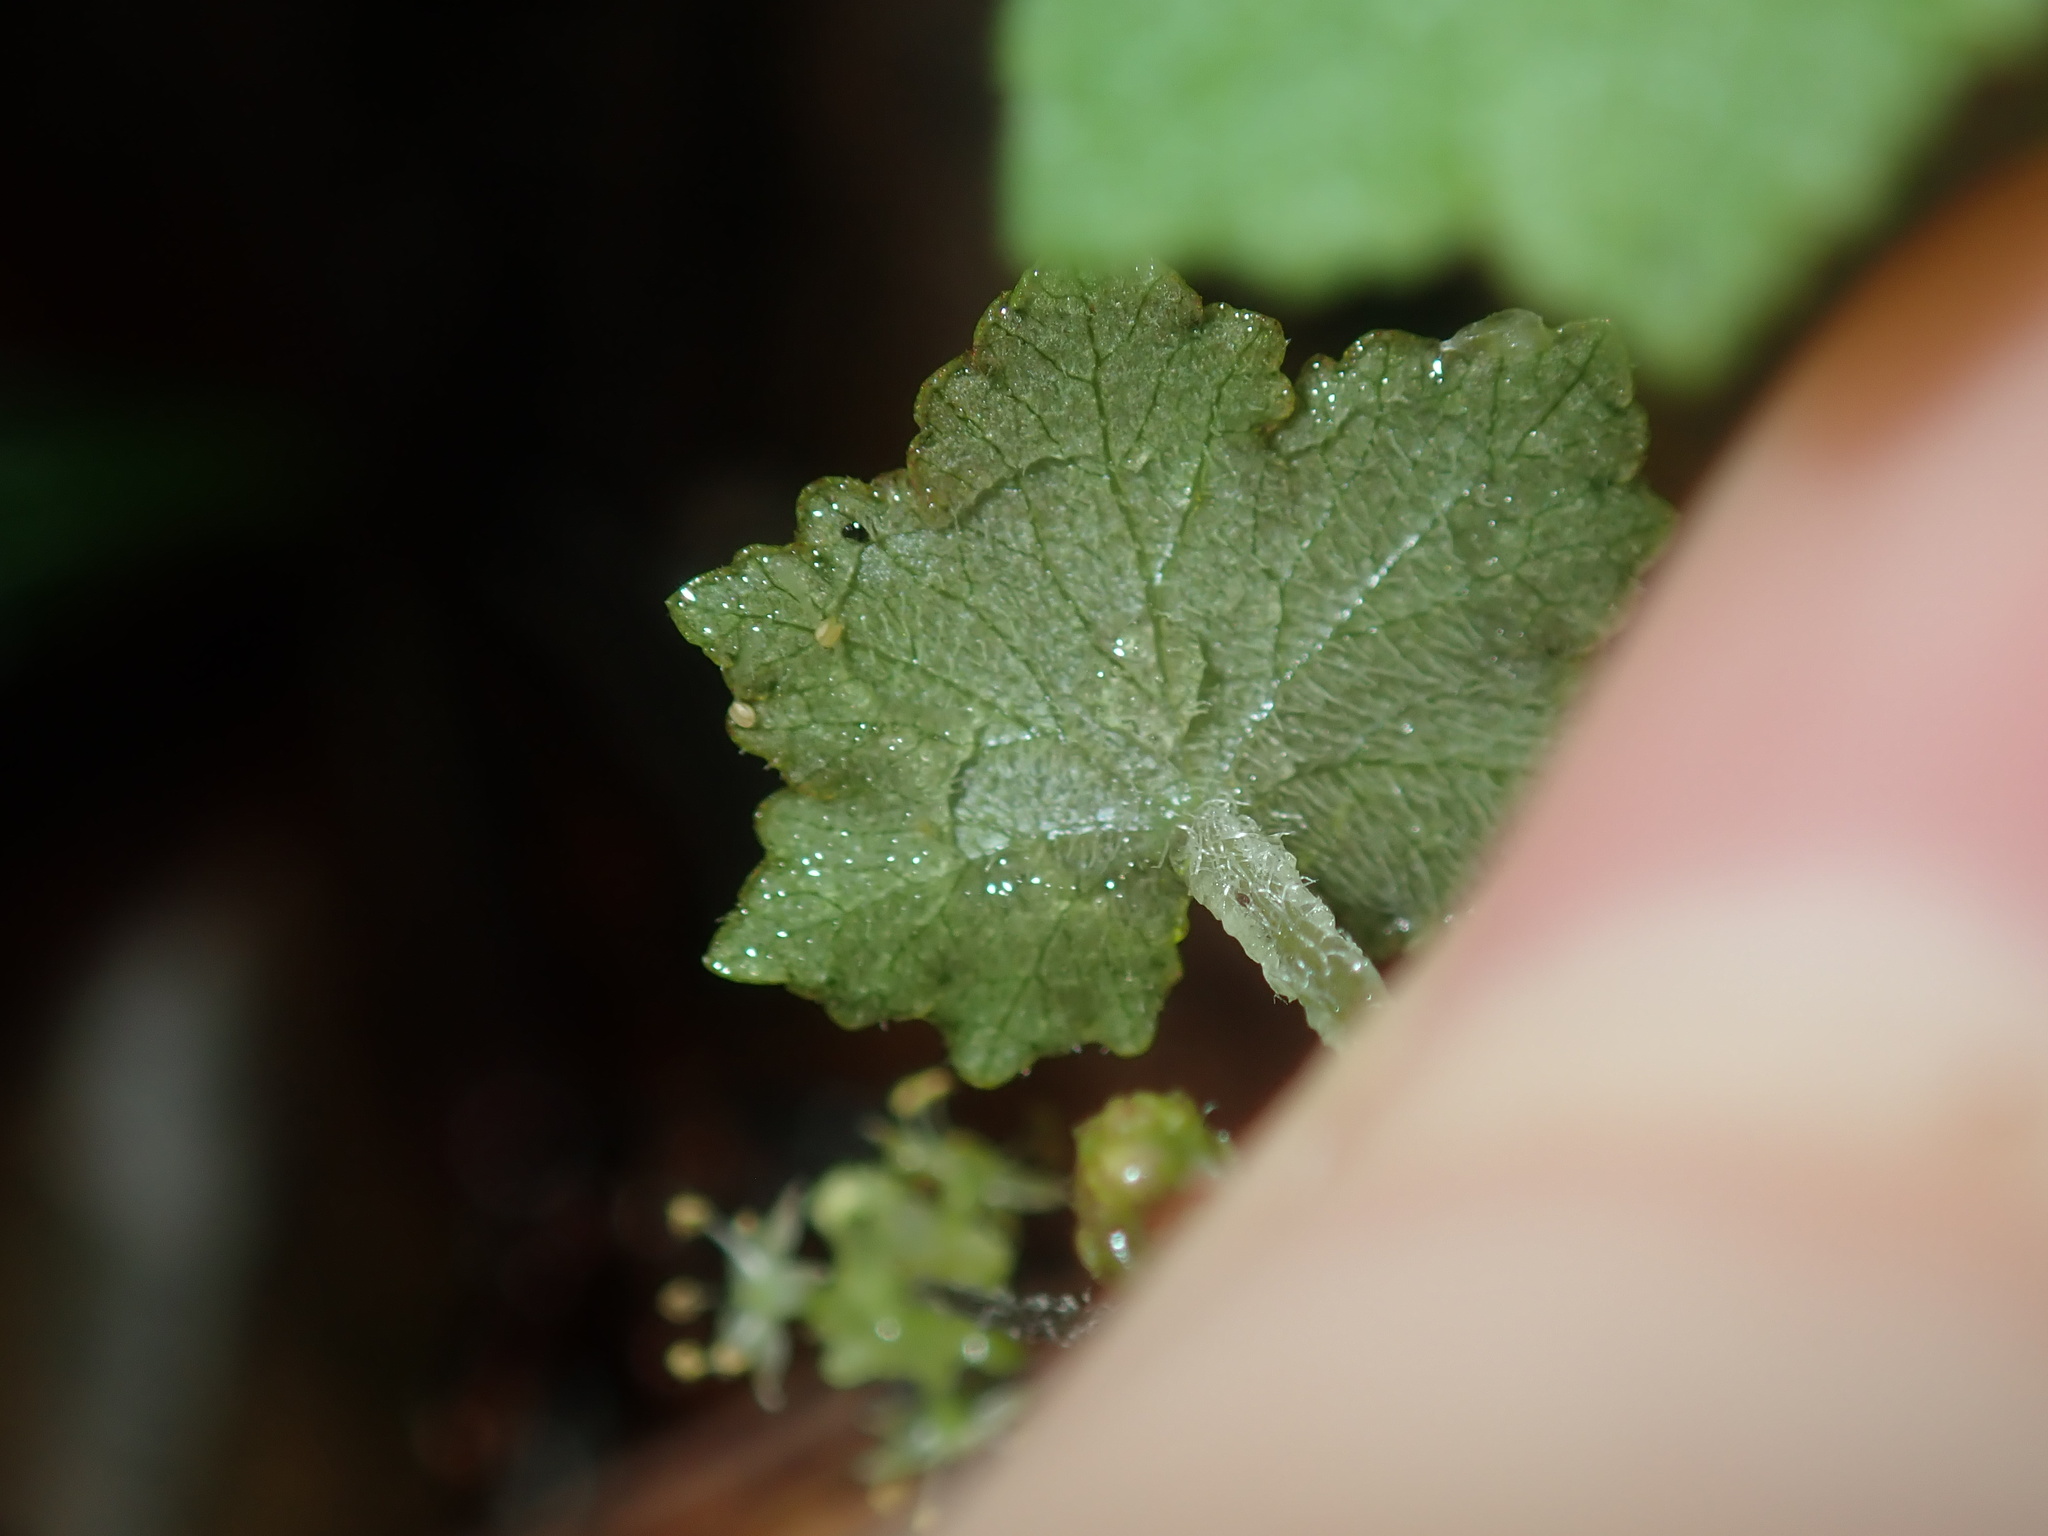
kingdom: Plantae
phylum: Tracheophyta
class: Magnoliopsida
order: Apiales
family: Araliaceae
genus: Hydrocotyle
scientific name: Hydrocotyle hirta
